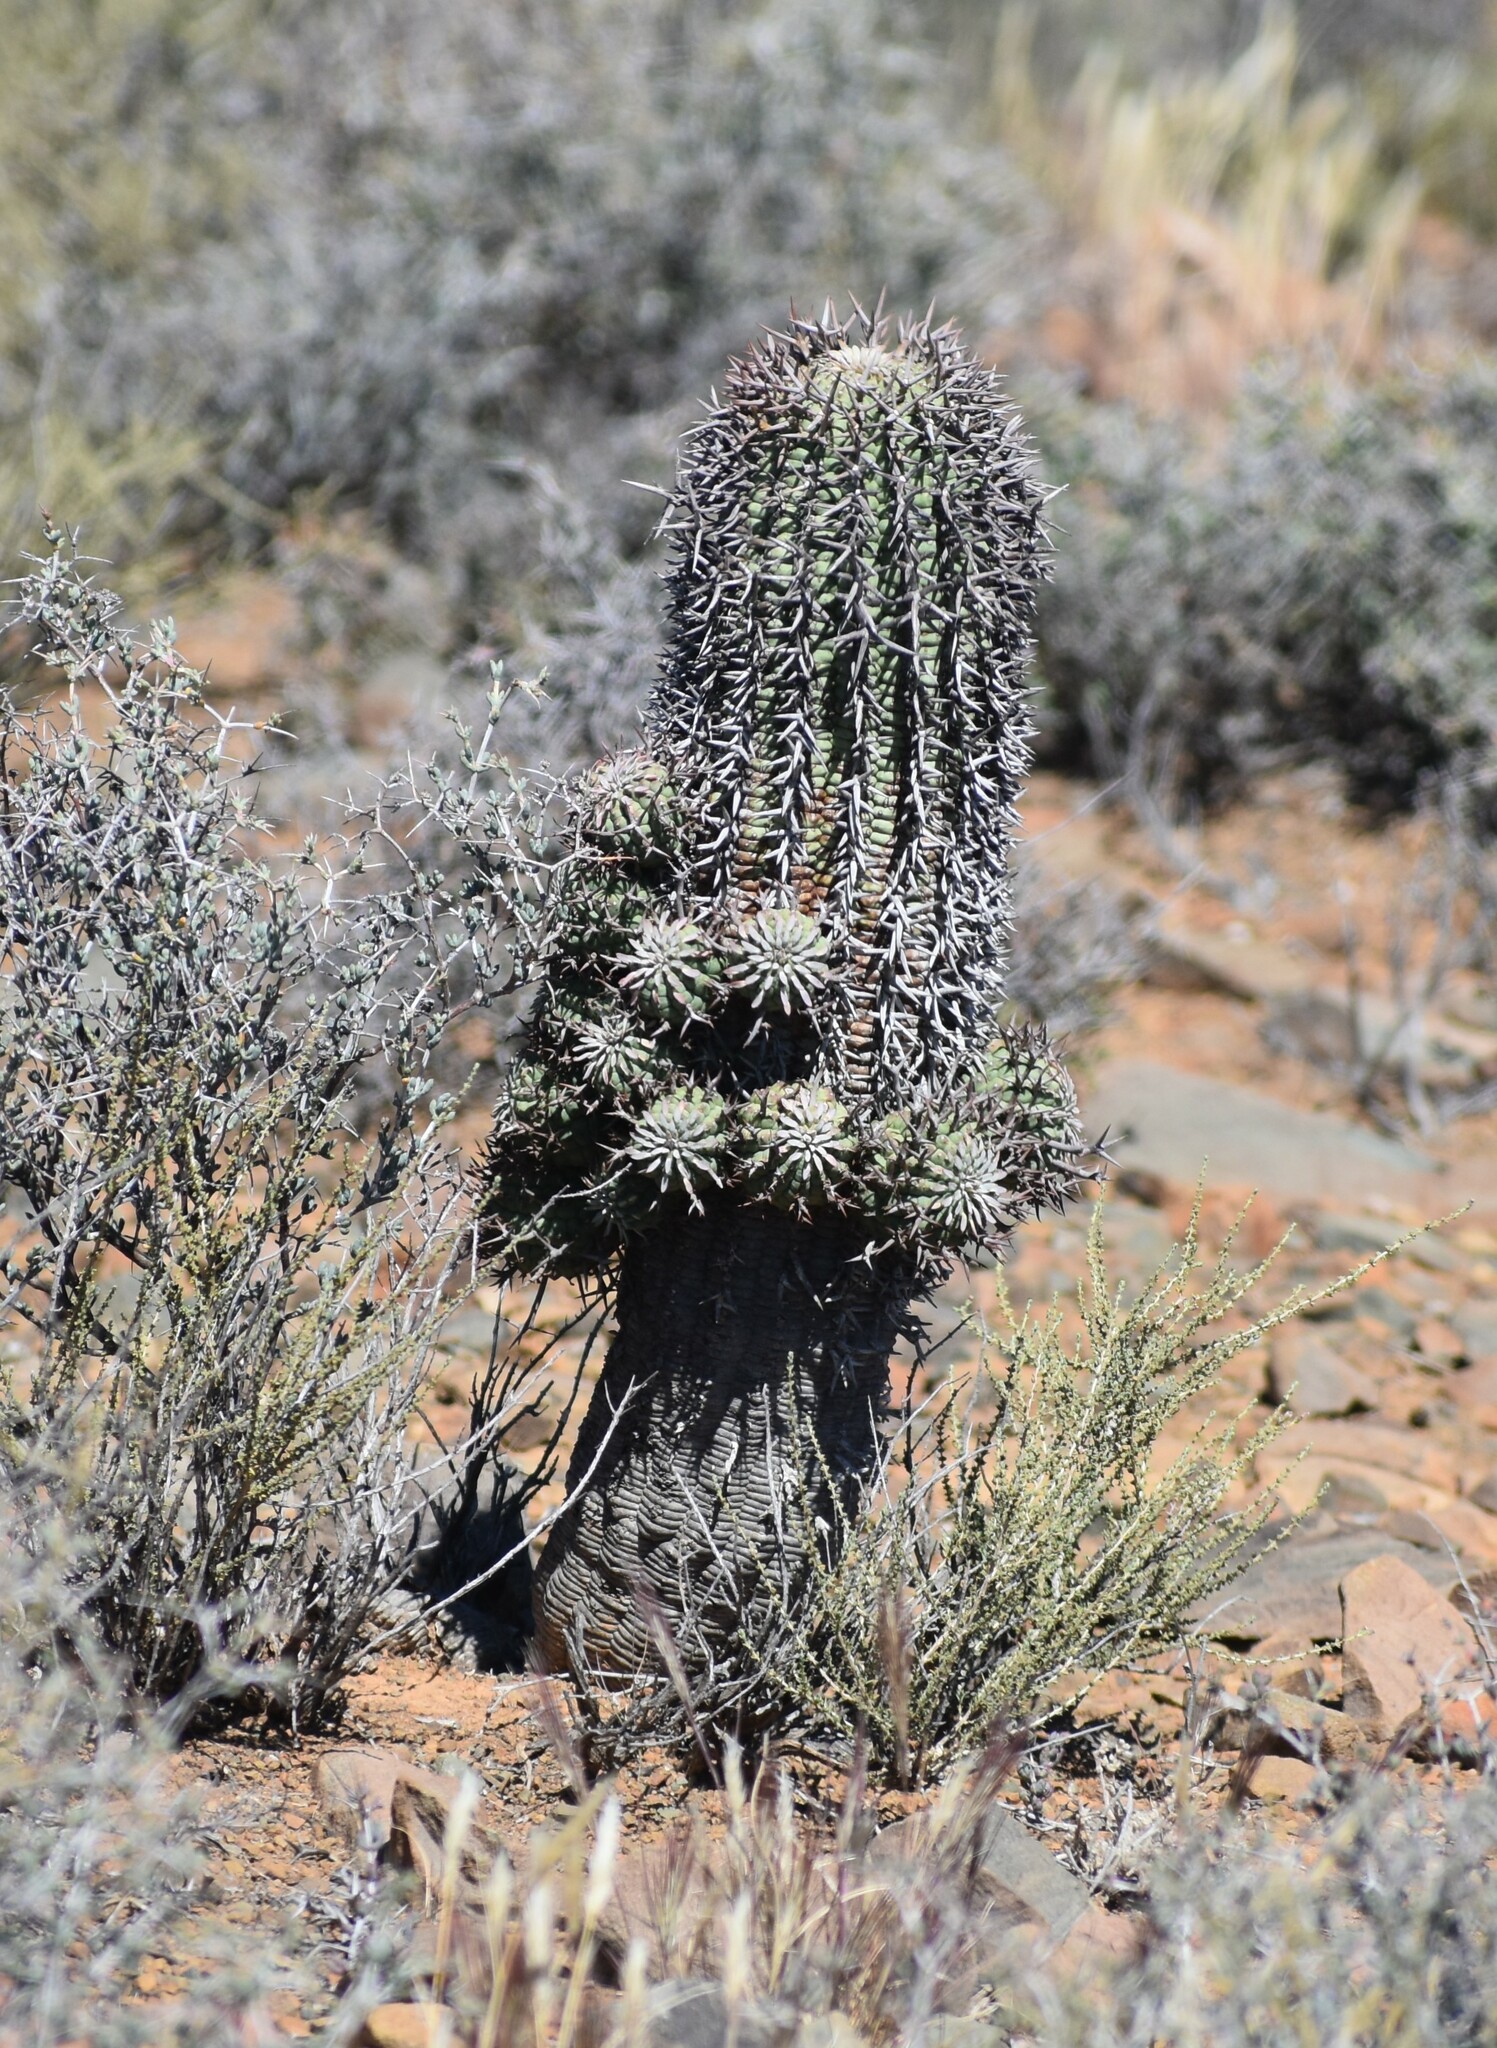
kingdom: Plantae
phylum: Tracheophyta
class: Magnoliopsida
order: Malpighiales
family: Euphorbiaceae
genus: Euphorbia
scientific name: Euphorbia stellispina
